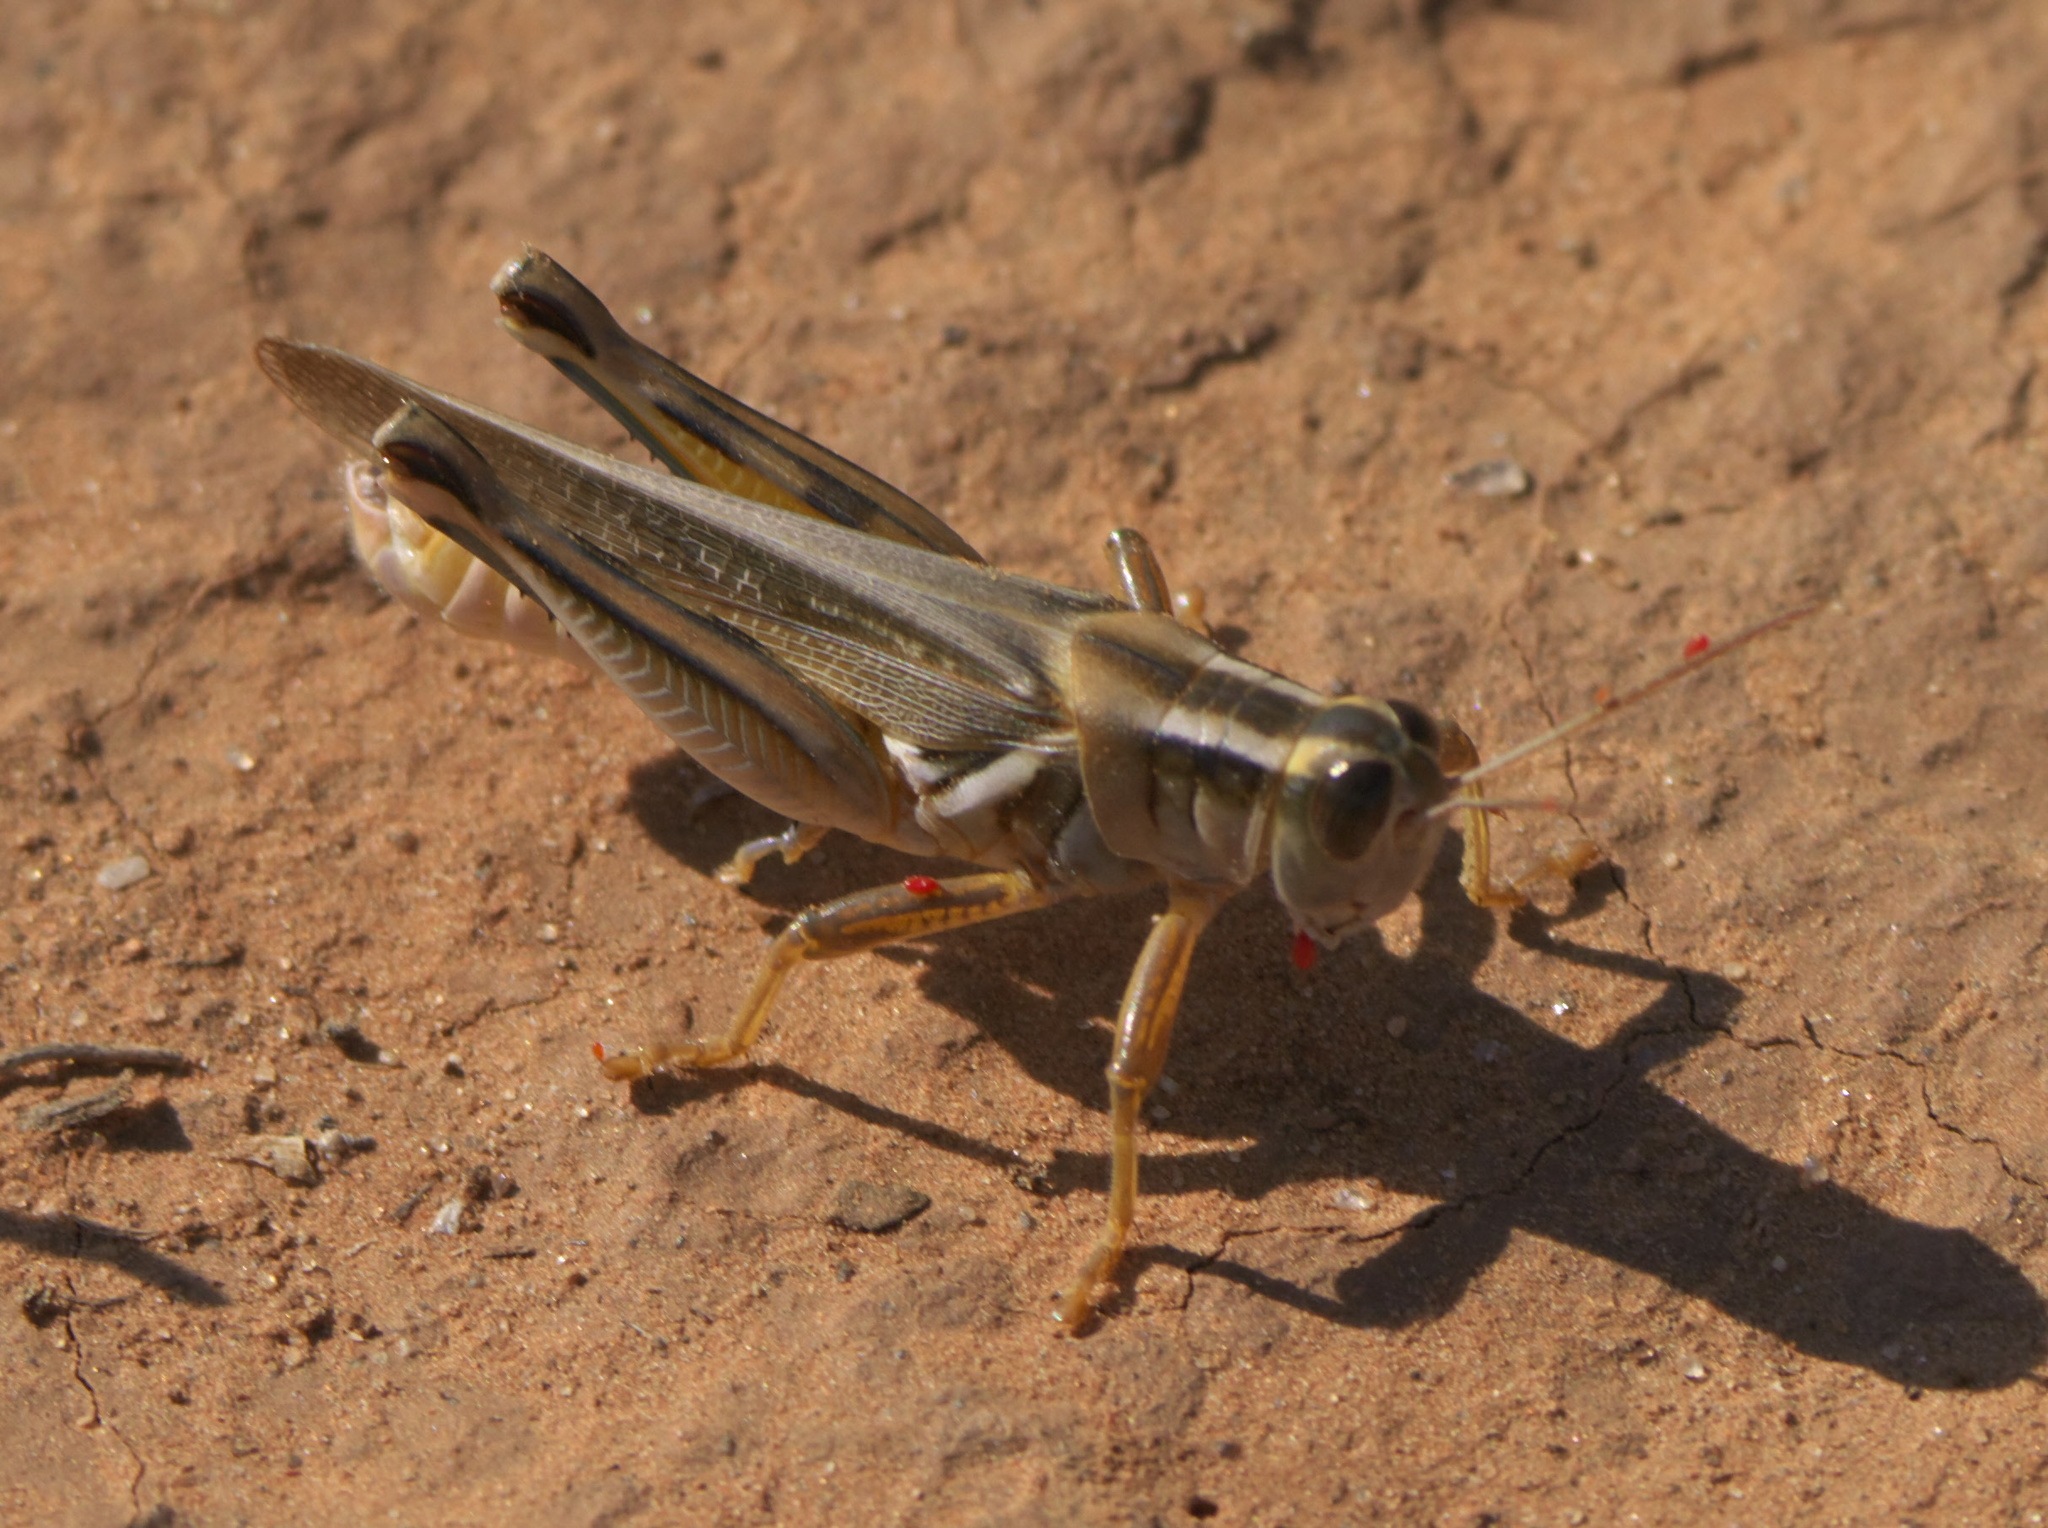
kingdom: Animalia
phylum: Arthropoda
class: Insecta
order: Orthoptera
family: Acrididae
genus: Melanoplus
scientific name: Melanoplus packardii
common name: Packard's grasshopper
